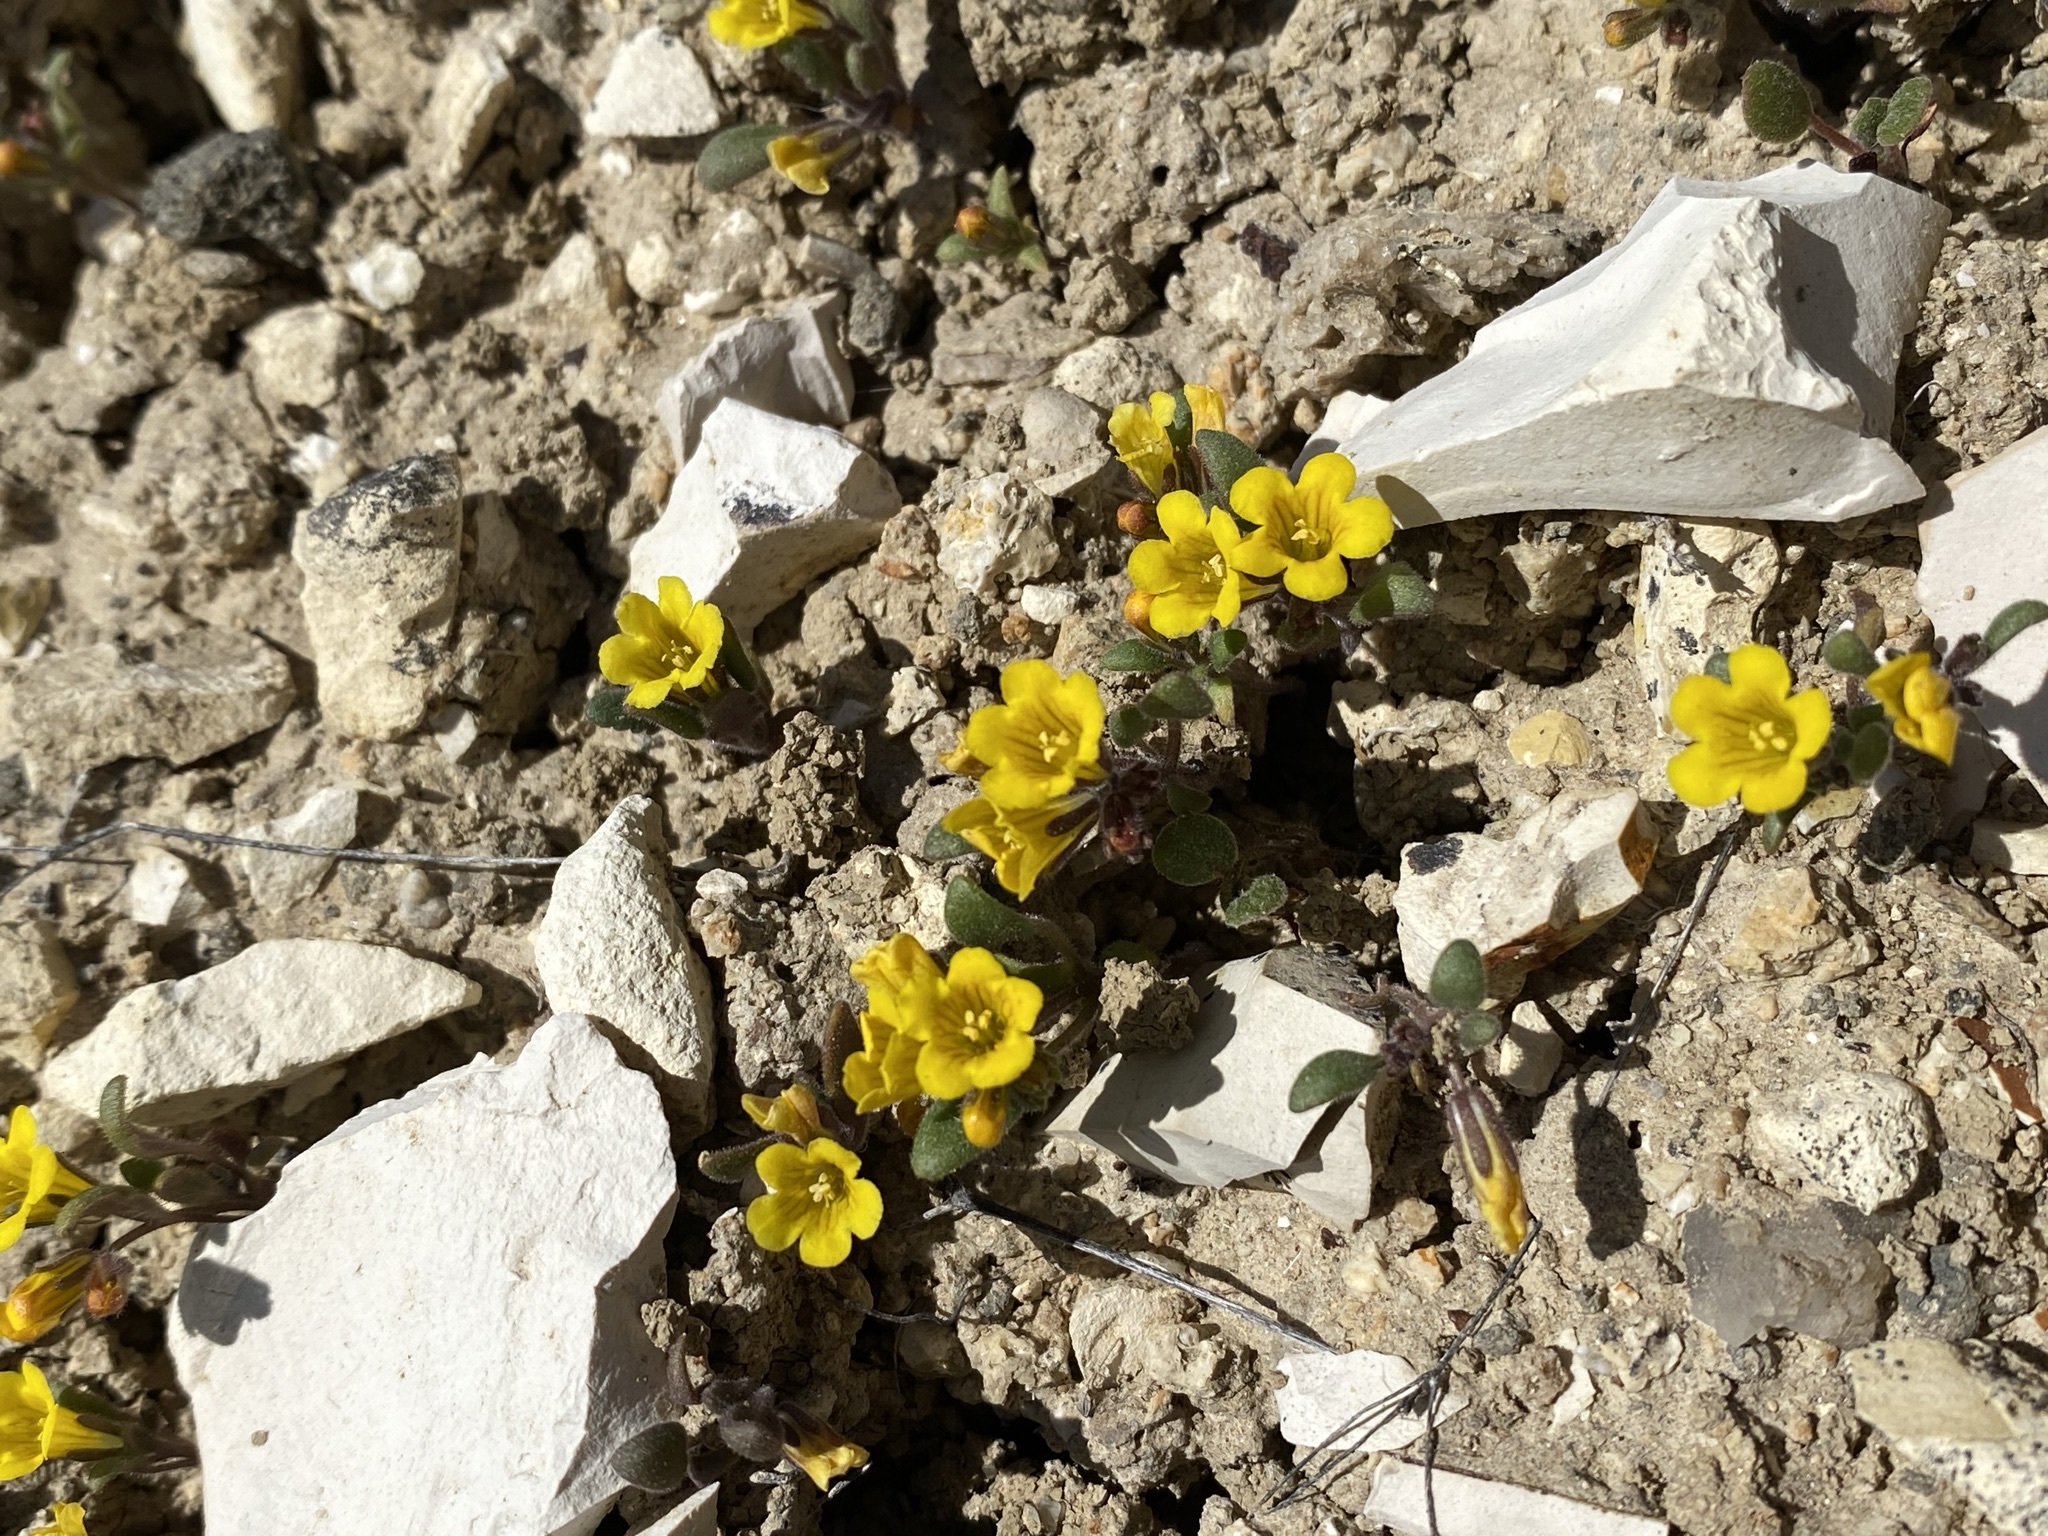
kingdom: Plantae
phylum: Tracheophyta
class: Magnoliopsida
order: Boraginales
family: Hydrophyllaceae
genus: Phacelia
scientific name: Phacelia lutea
